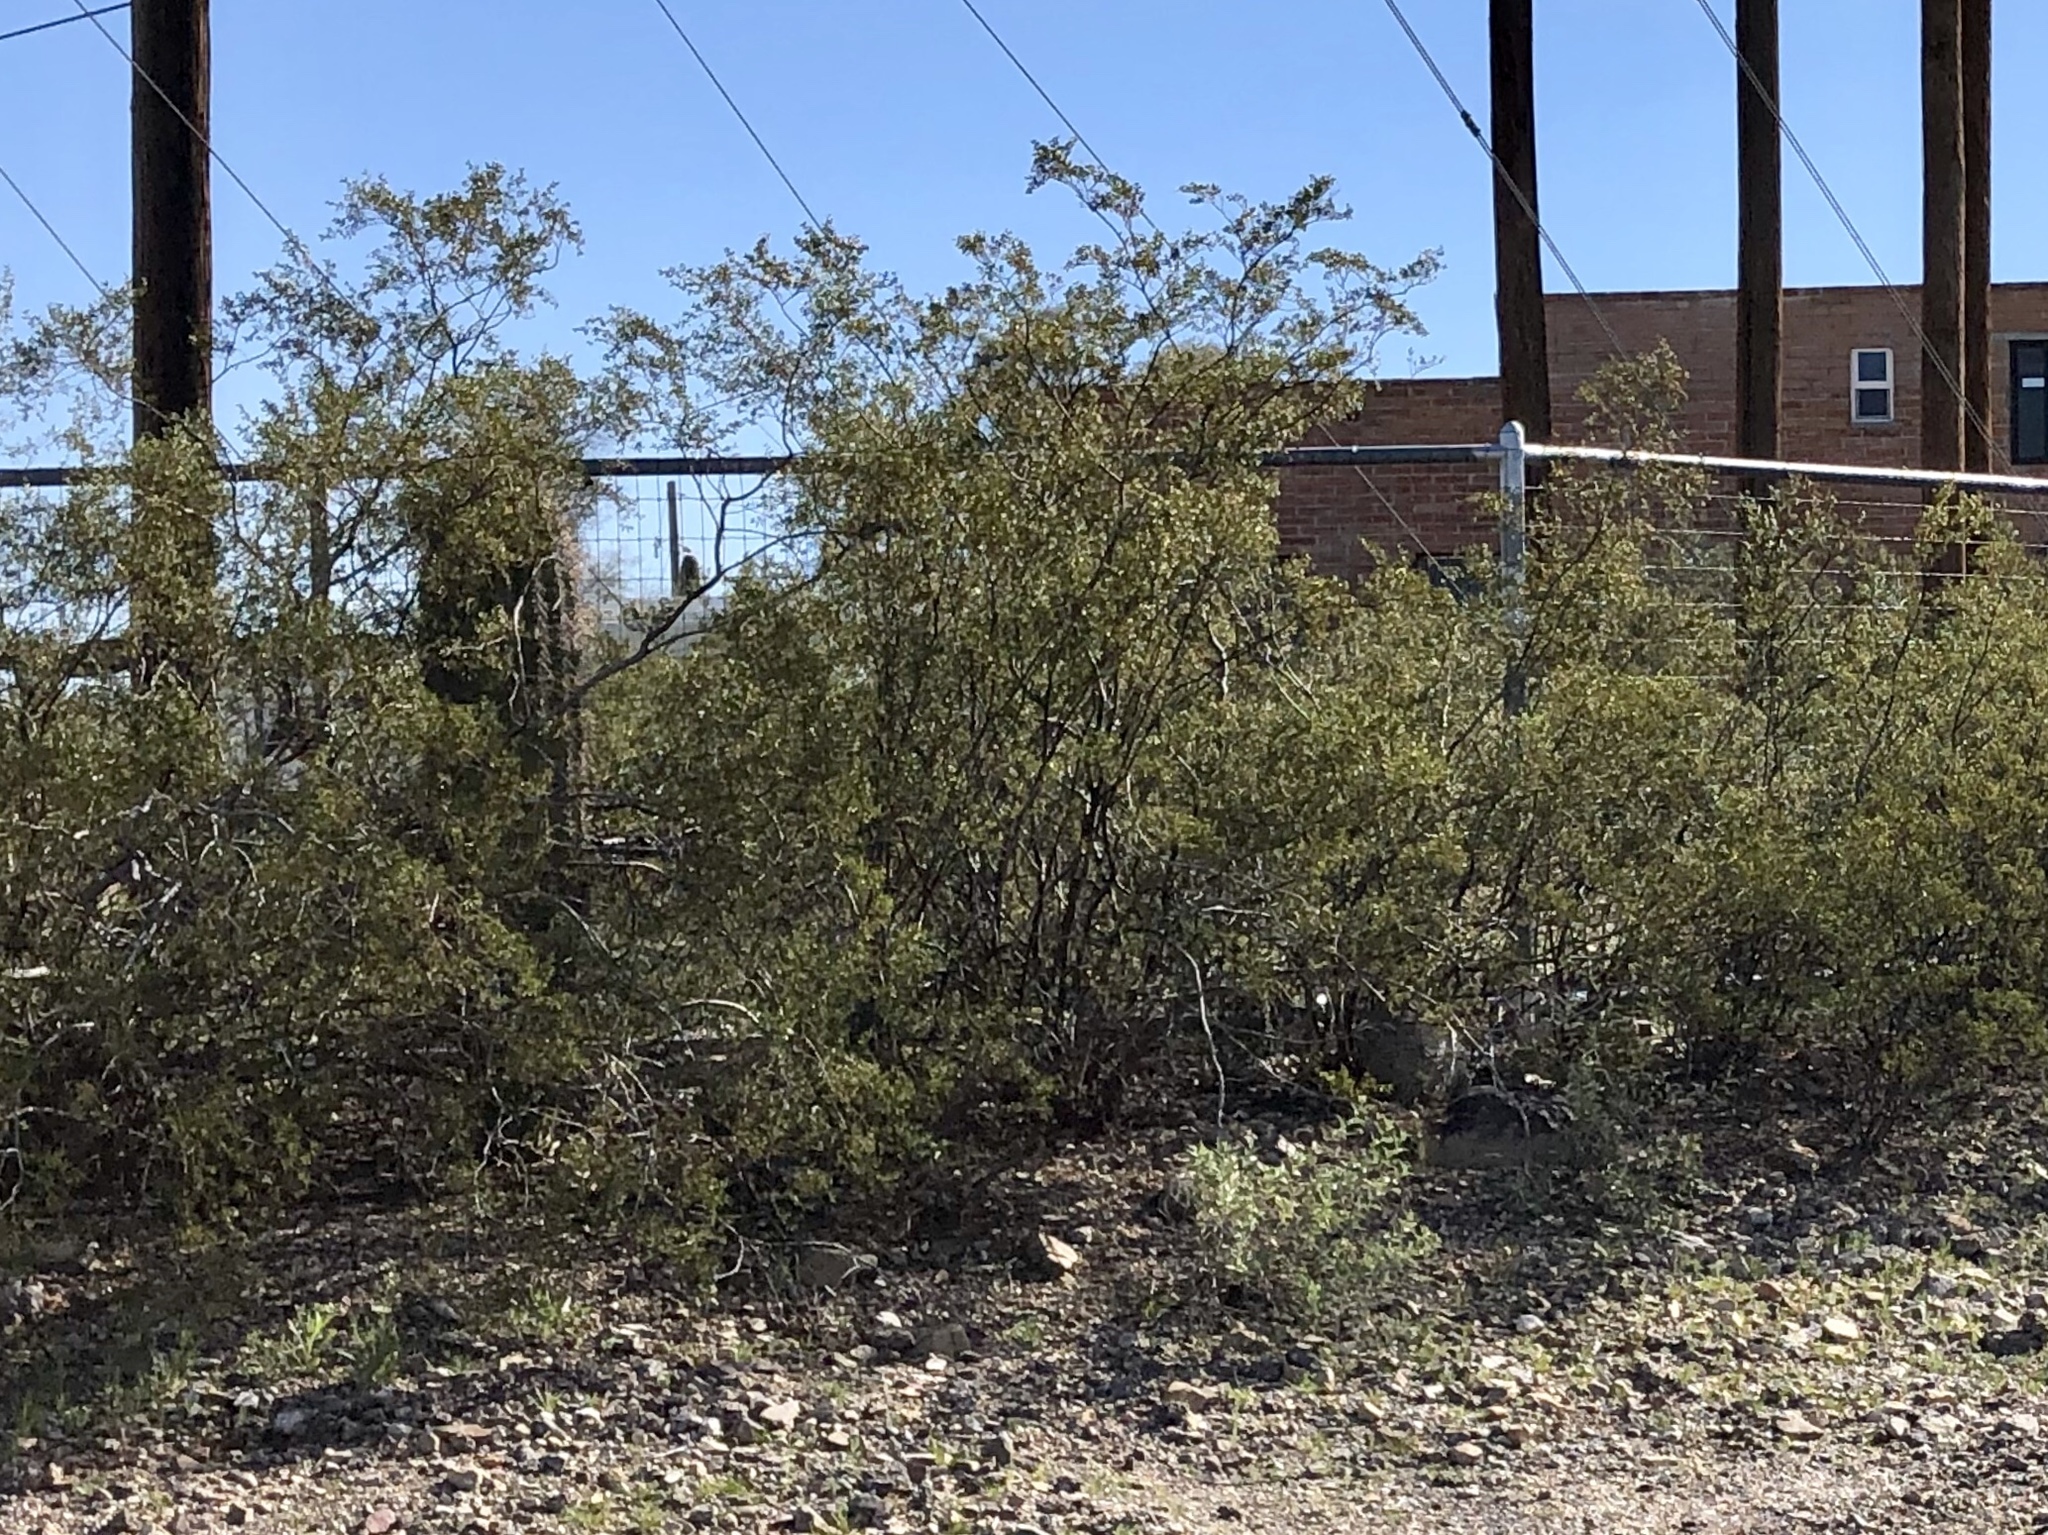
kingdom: Plantae
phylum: Tracheophyta
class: Magnoliopsida
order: Zygophyllales
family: Zygophyllaceae
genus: Larrea
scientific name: Larrea tridentata
